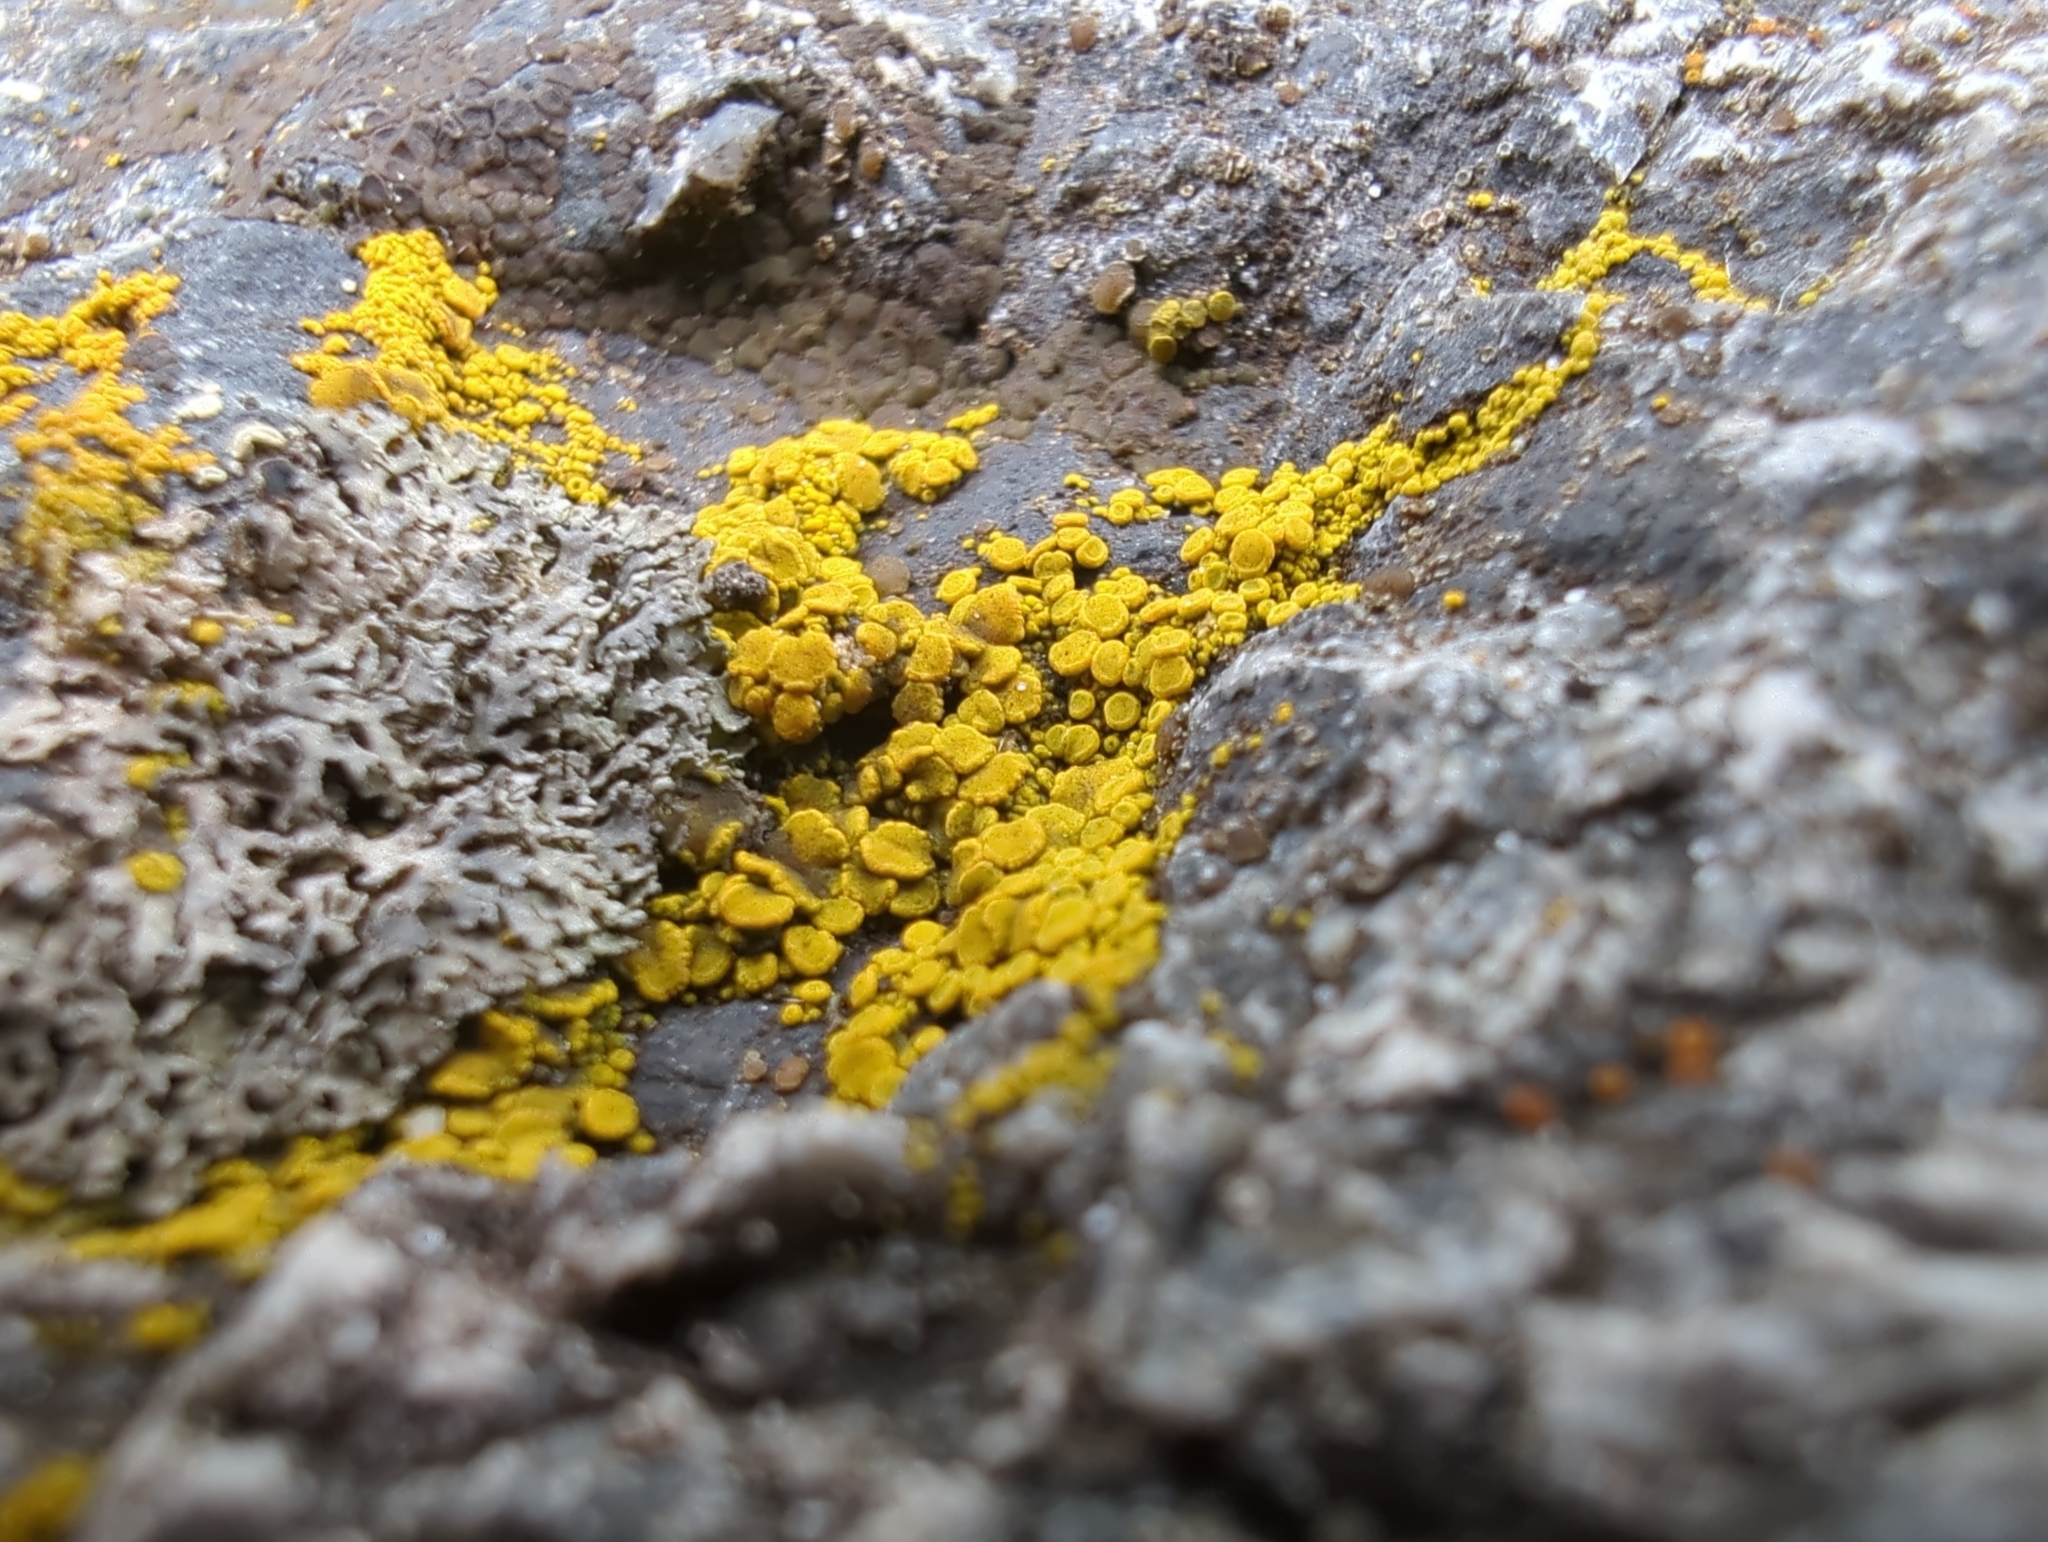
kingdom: Fungi
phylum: Ascomycota
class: Candelariomycetes
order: Candelariales
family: Candelariaceae
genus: Candelariella
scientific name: Candelariella vitellina
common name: Common goldspeck
